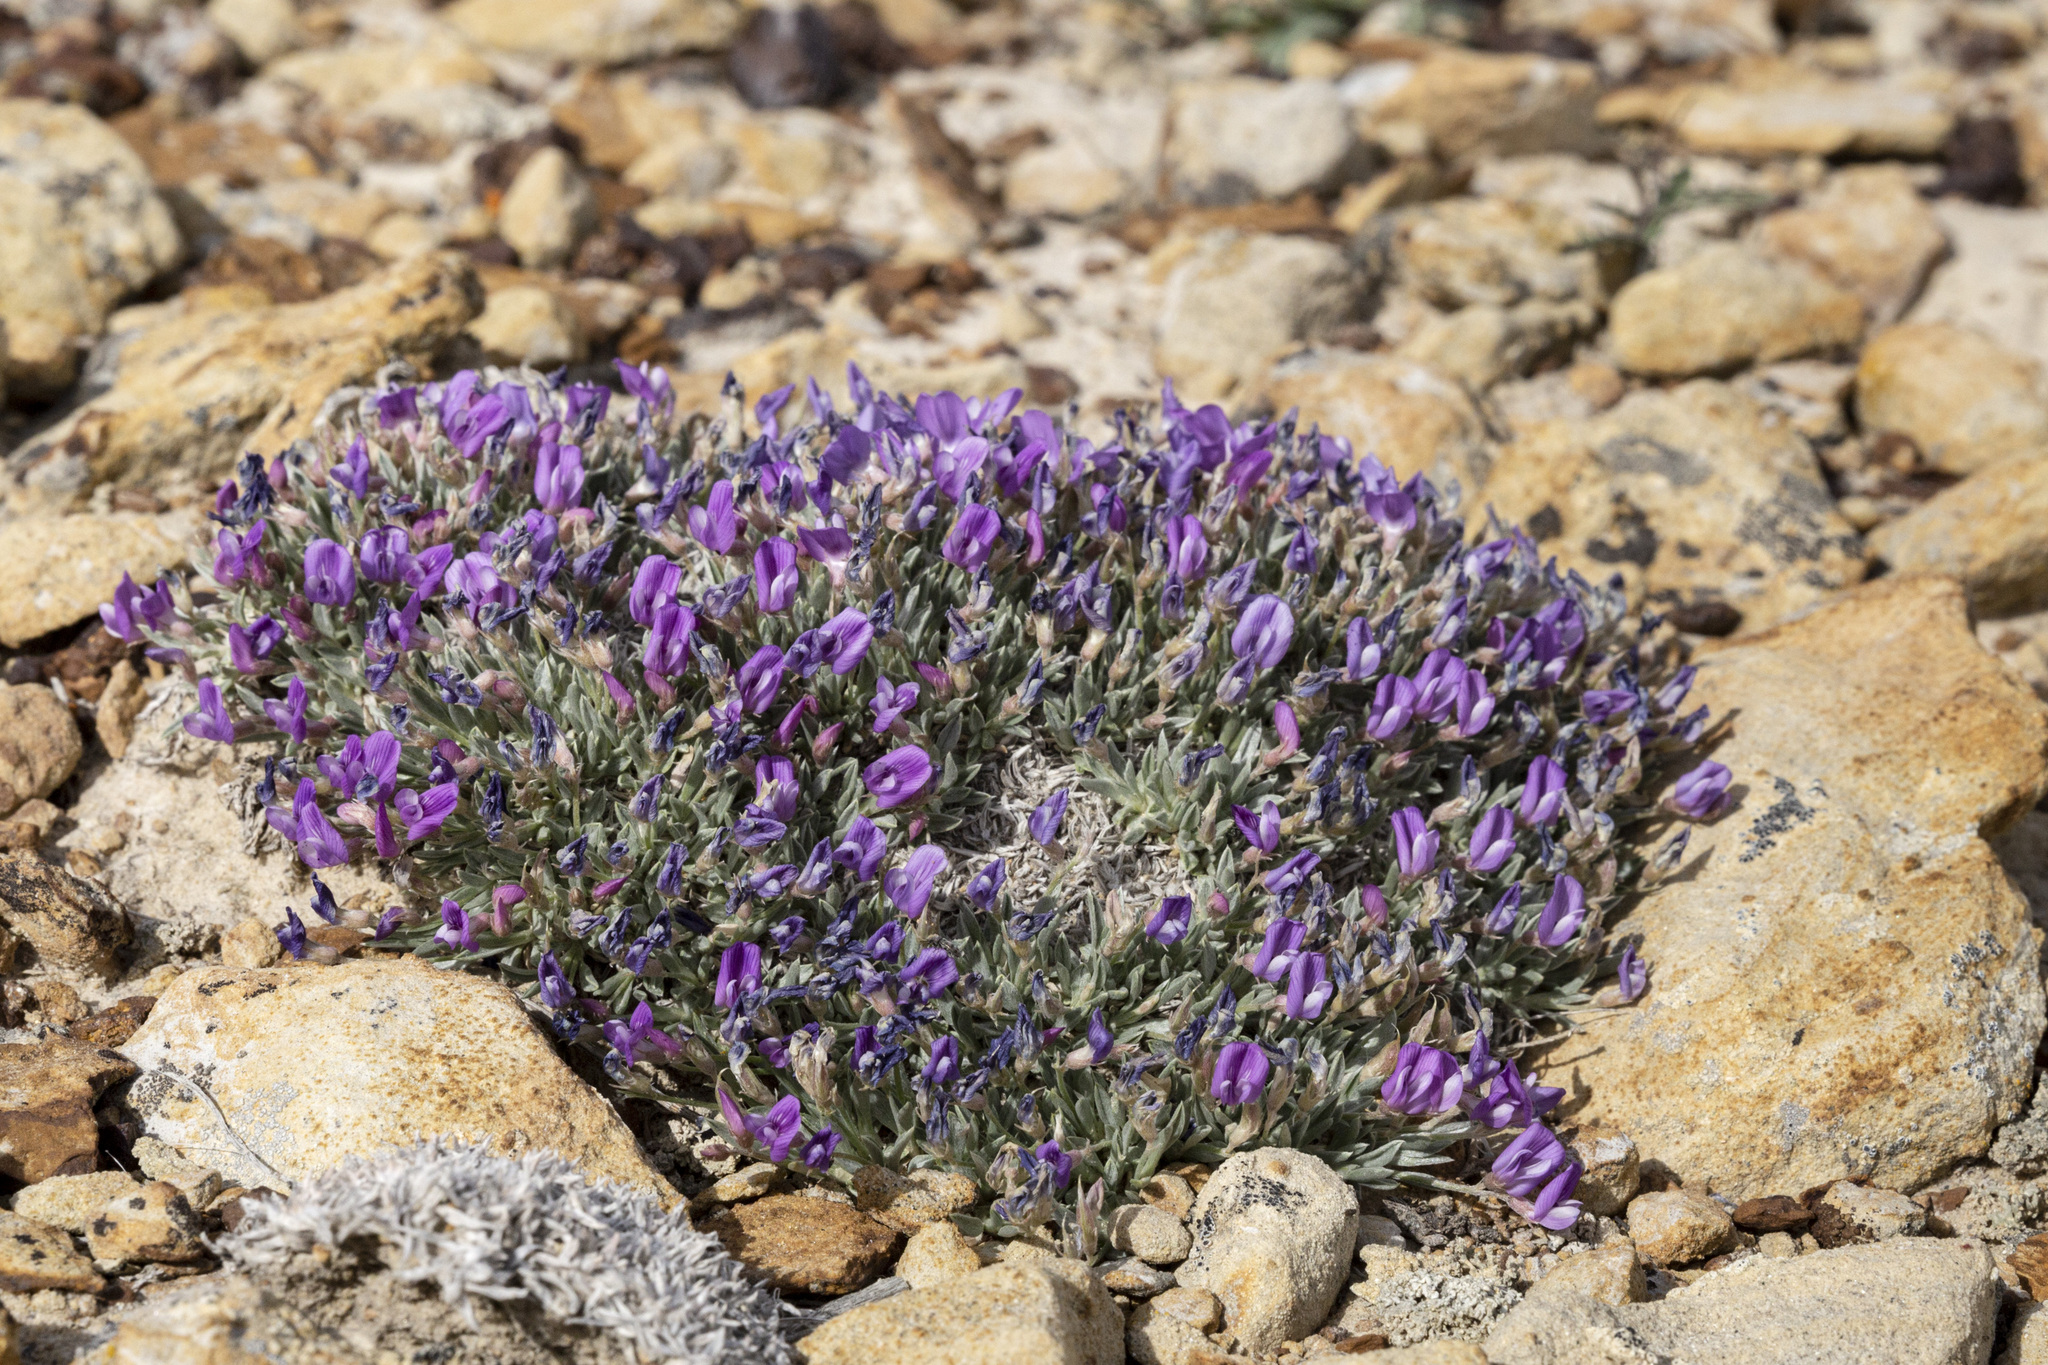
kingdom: Plantae
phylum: Tracheophyta
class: Magnoliopsida
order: Fabales
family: Fabaceae
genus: Astragalus
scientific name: Astragalus spatulatus
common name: Draba milk-vetch
